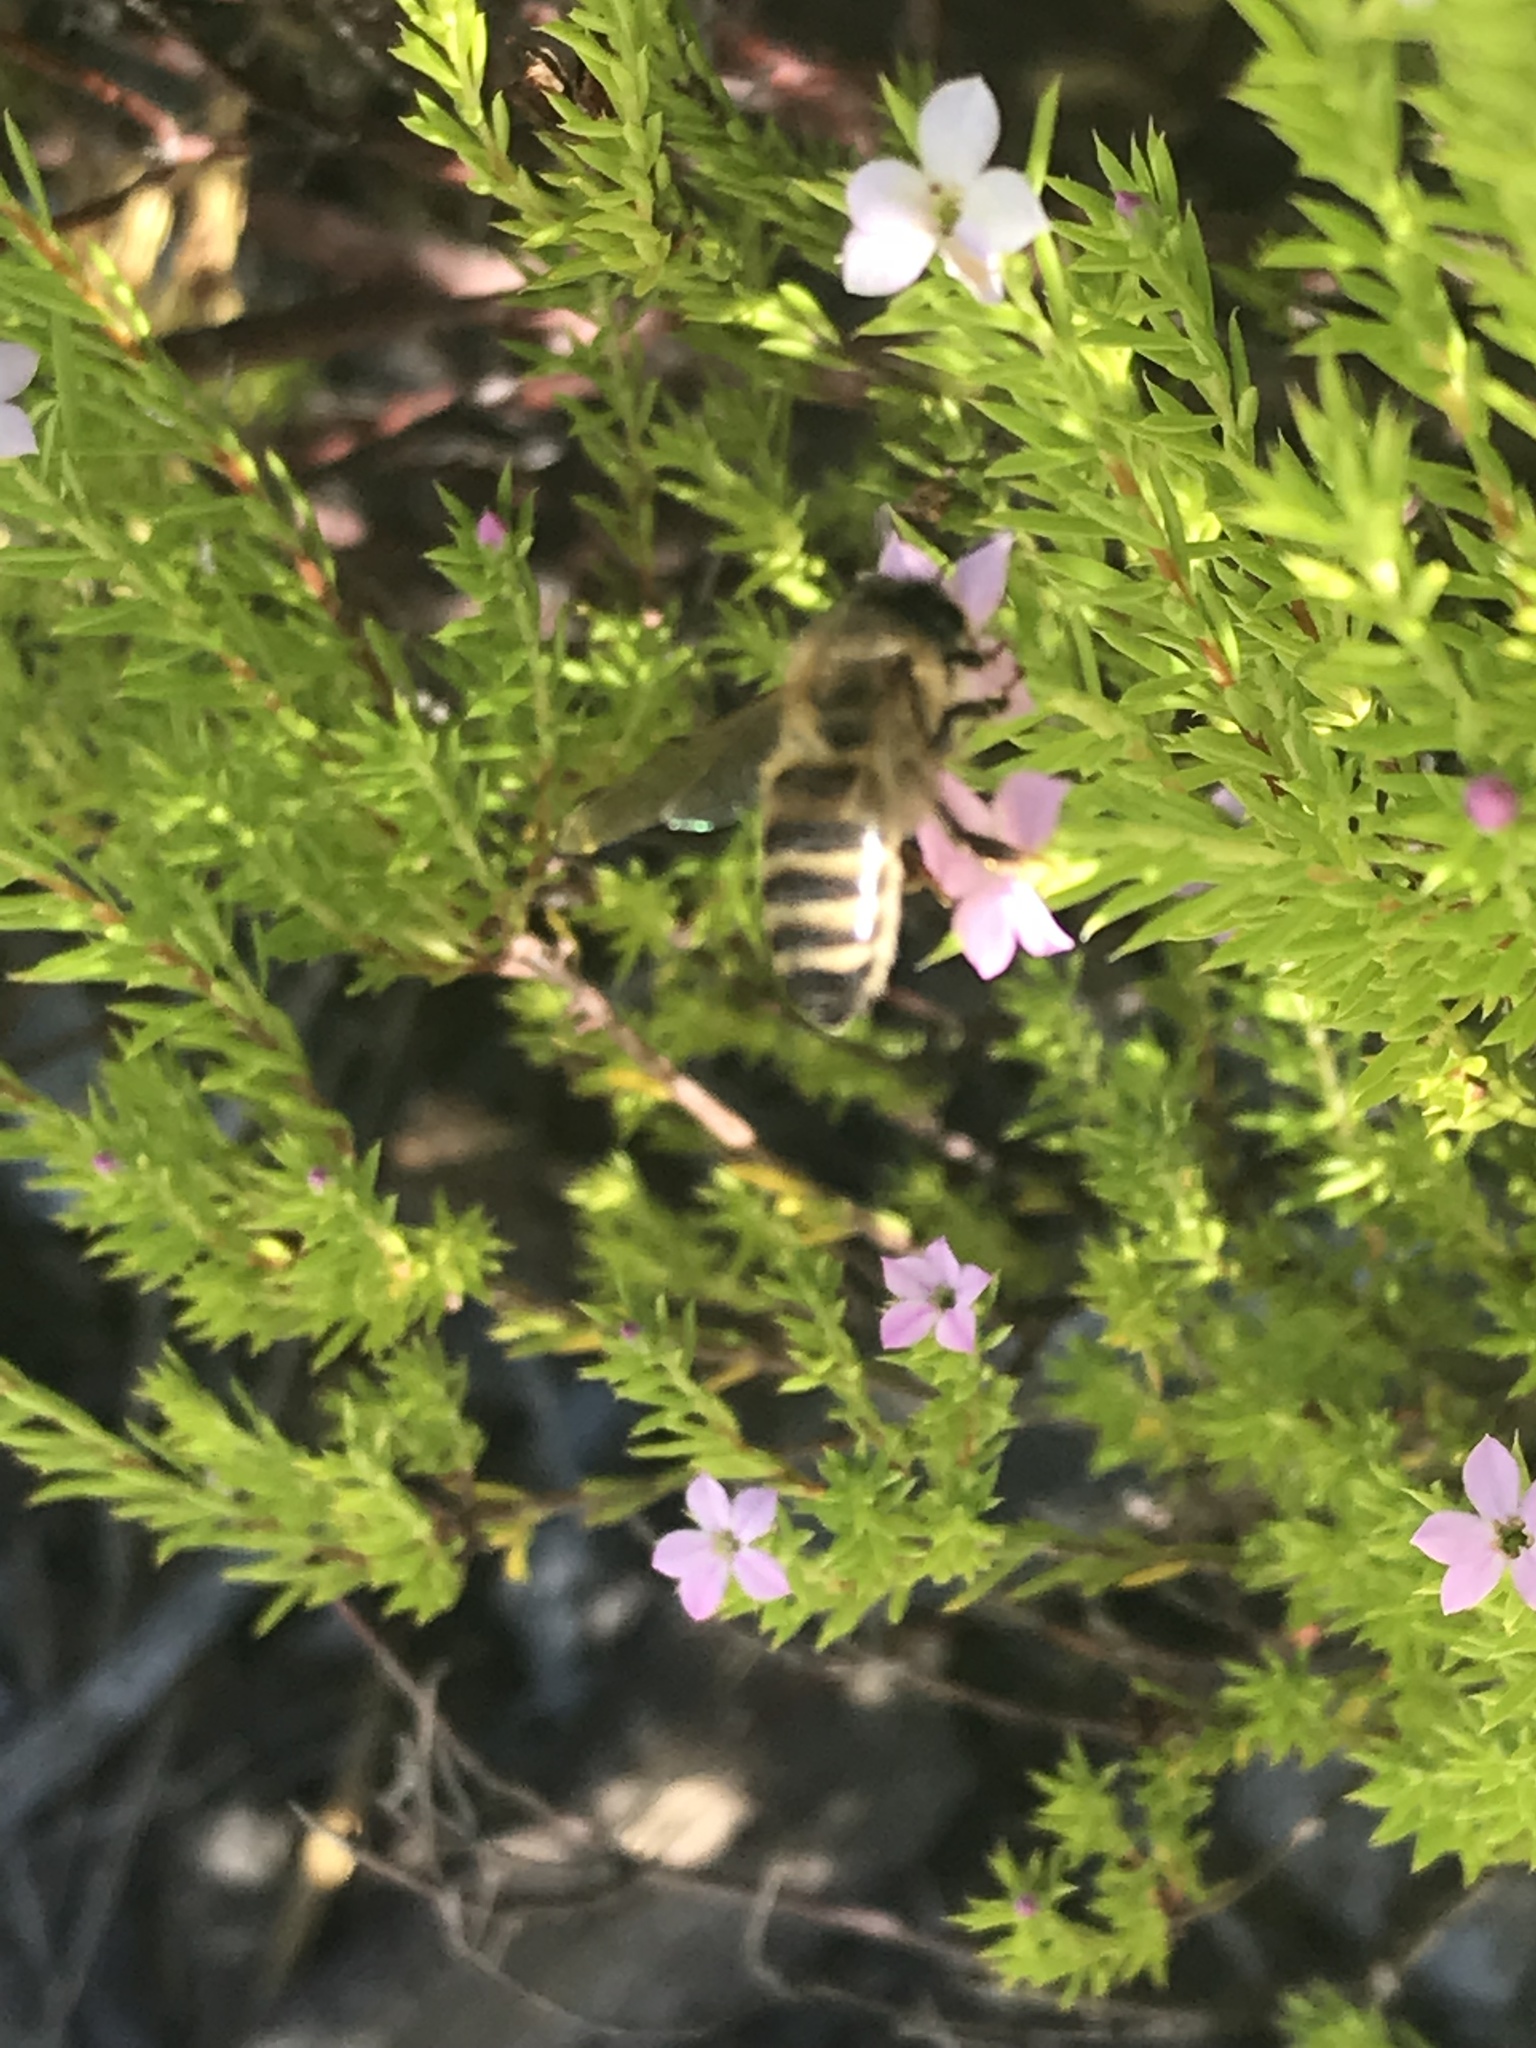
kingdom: Animalia
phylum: Arthropoda
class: Insecta
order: Hymenoptera
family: Apidae
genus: Apis
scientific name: Apis mellifera
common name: Honey bee
